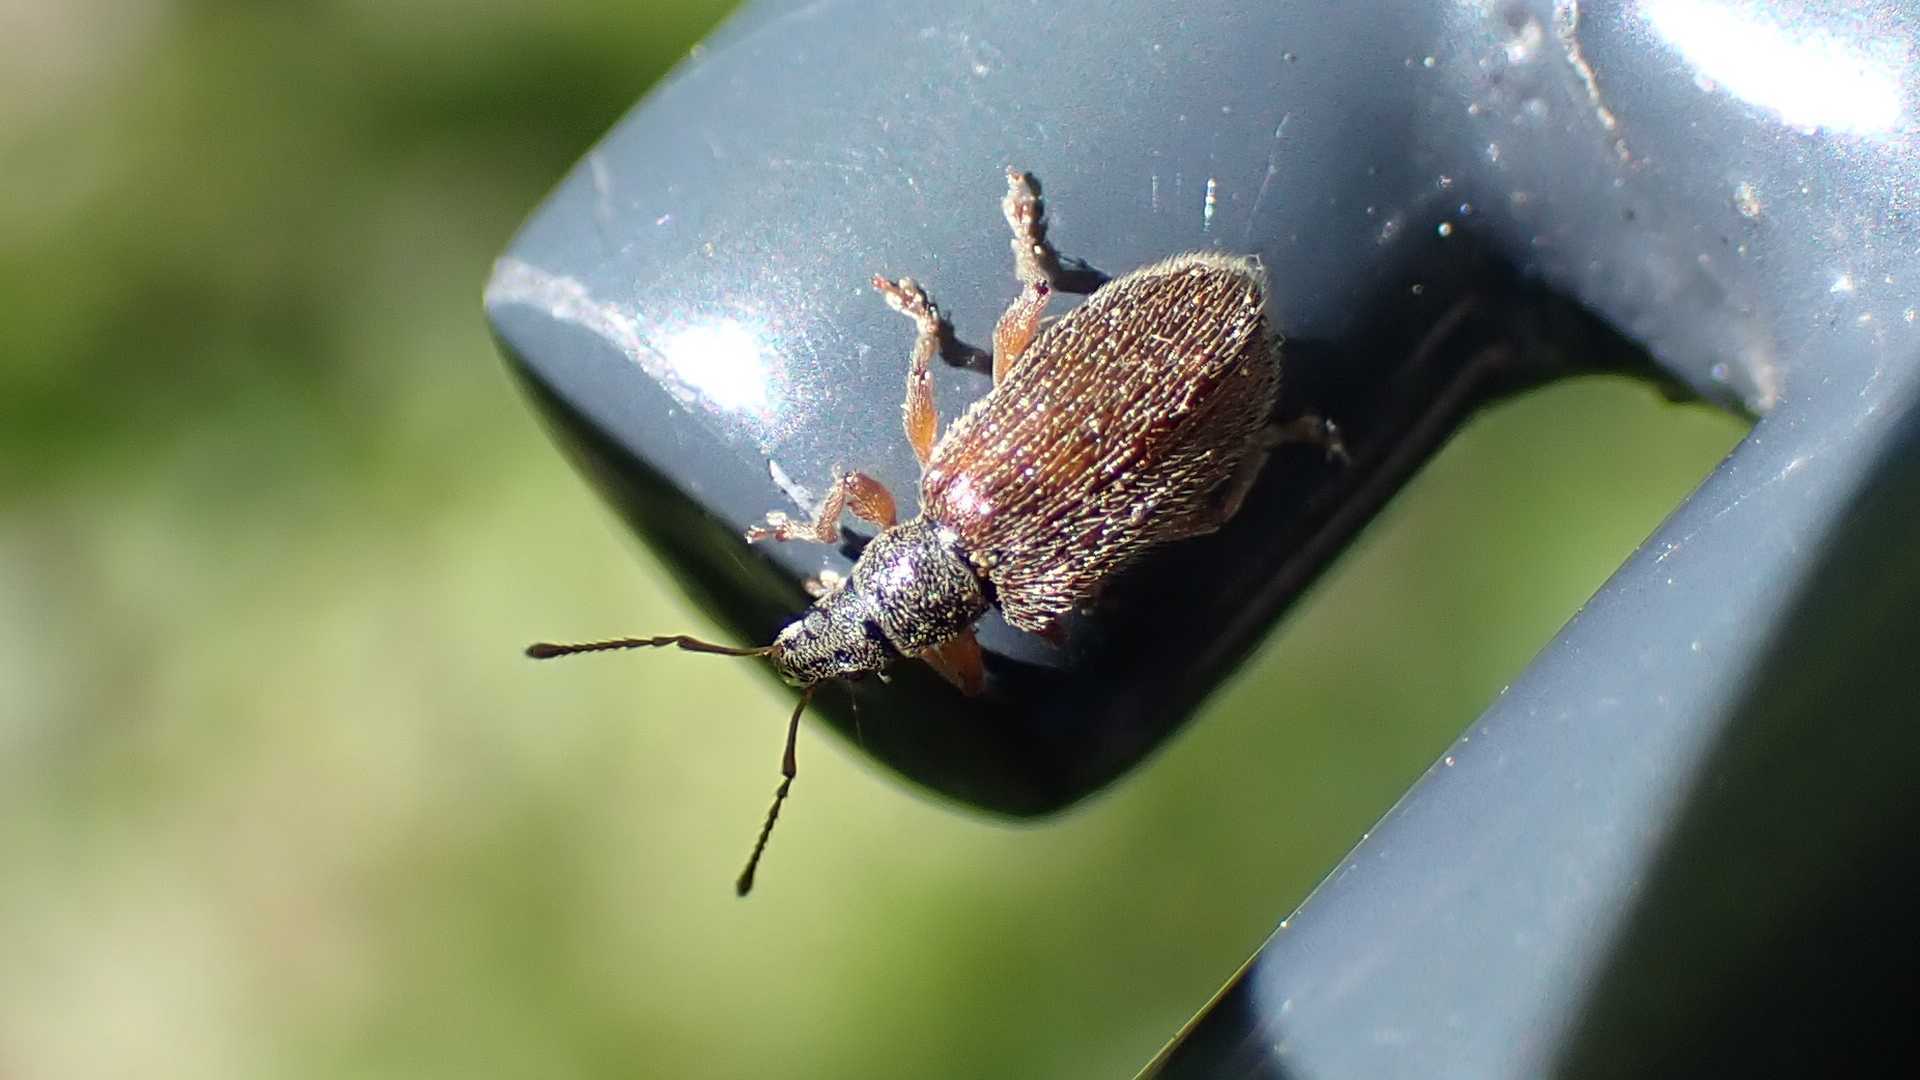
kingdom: Animalia
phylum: Arthropoda
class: Insecta
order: Coleoptera
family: Curculionidae
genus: Phyllobius
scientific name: Phyllobius oblongus
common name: Brown leaf weevil
